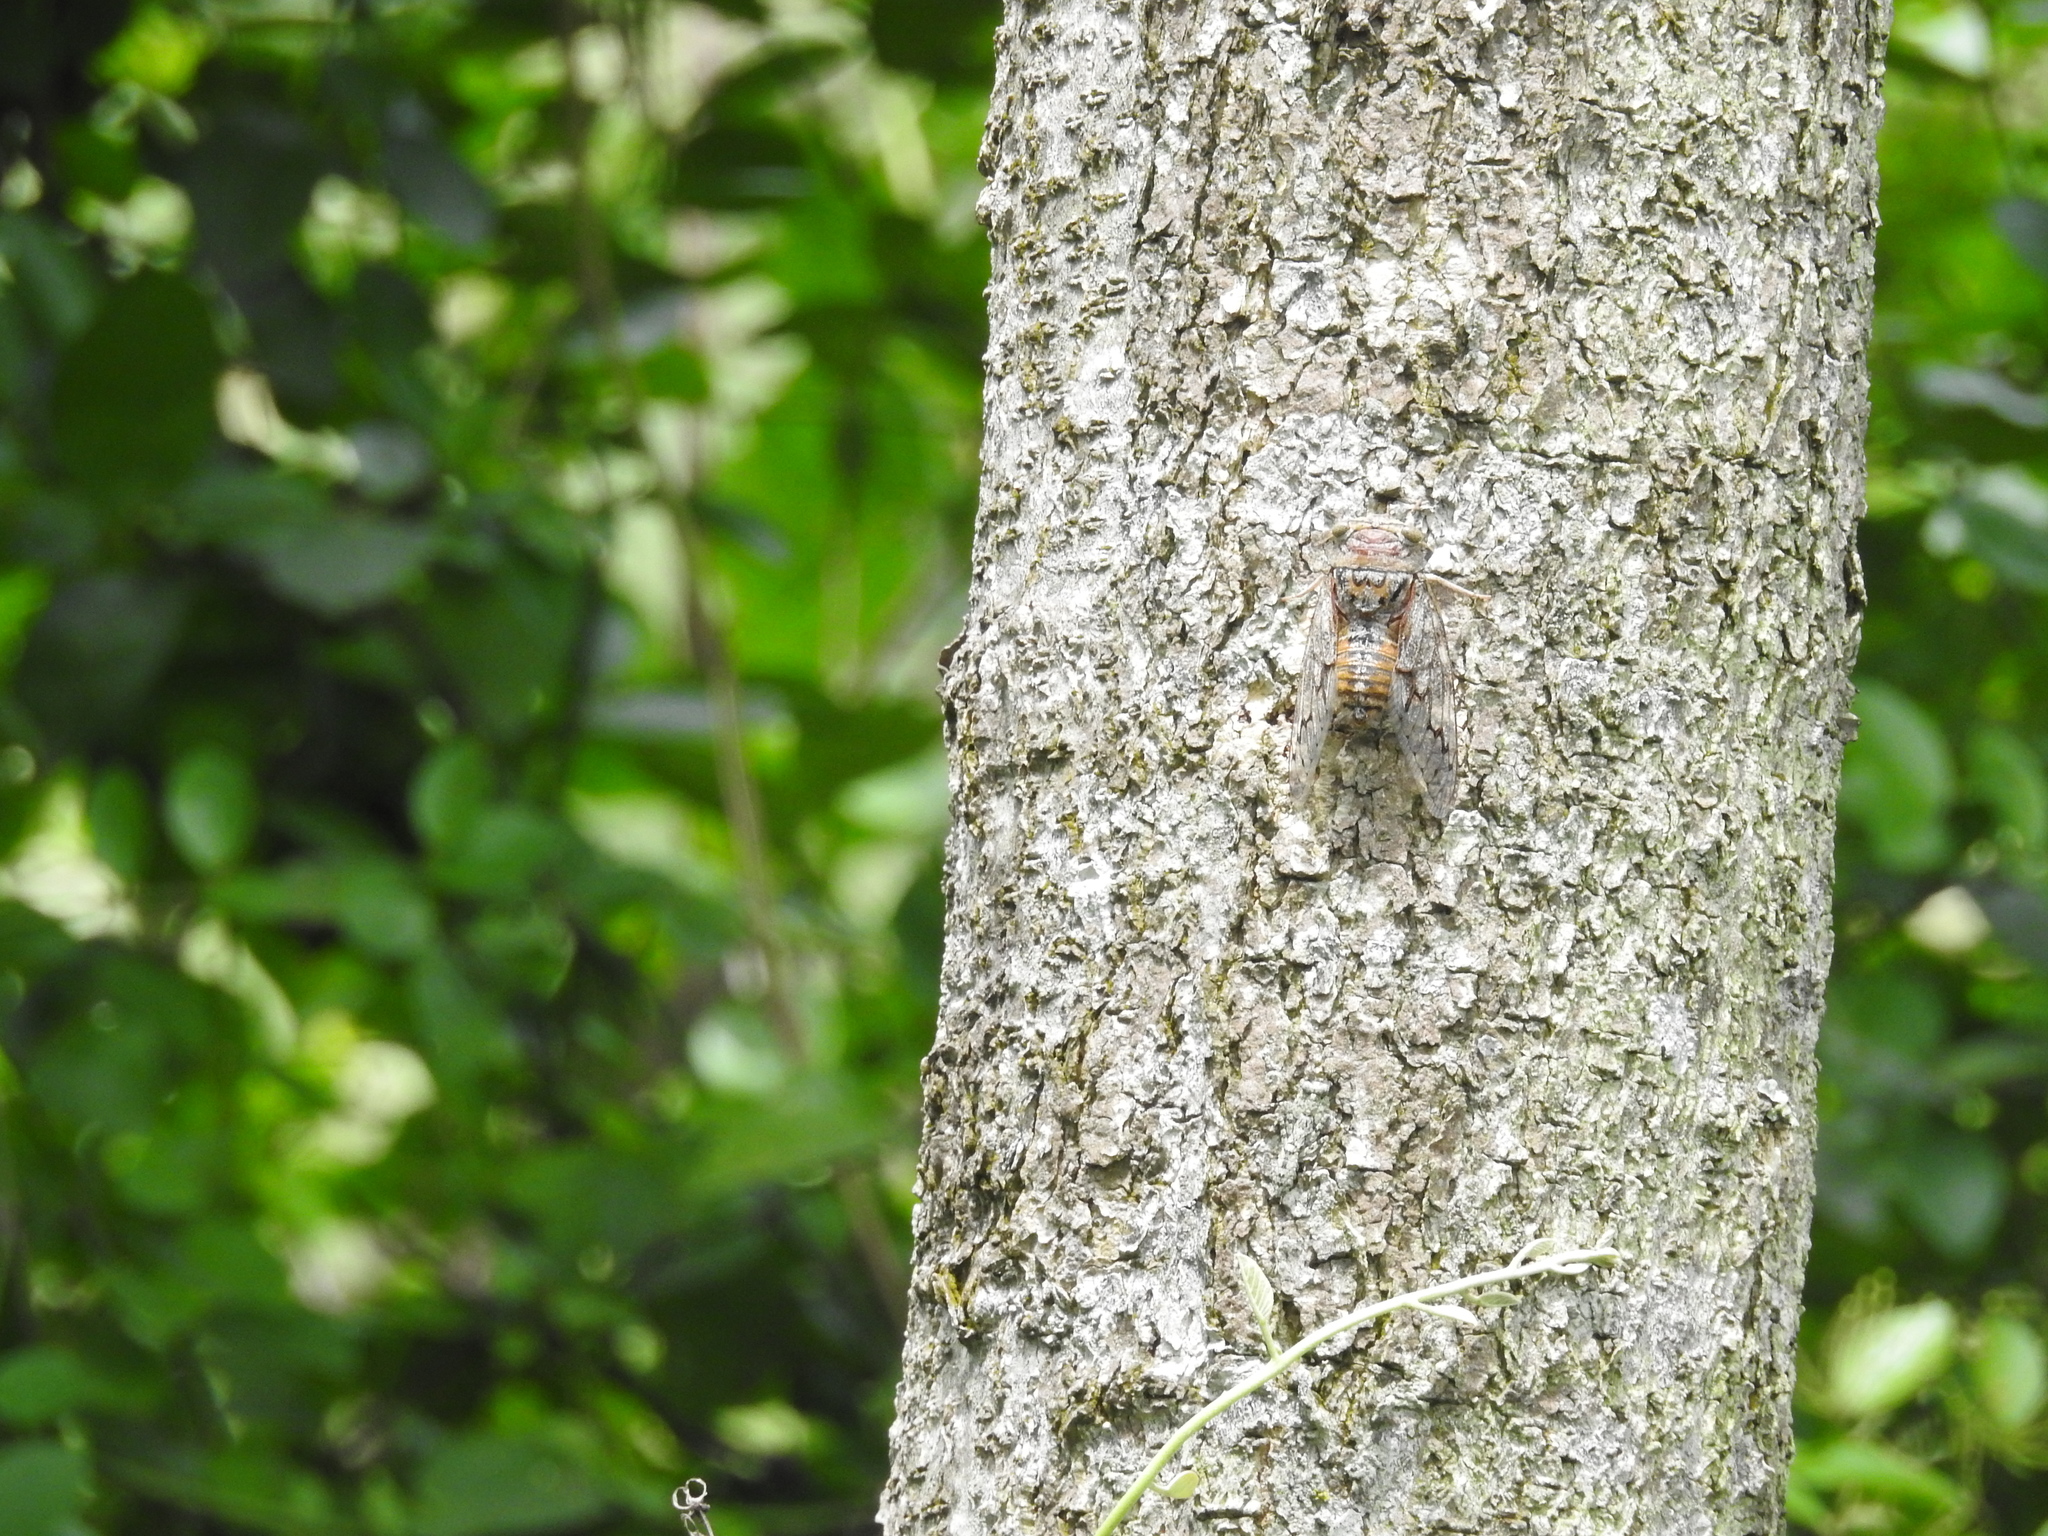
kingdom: Animalia
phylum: Arthropoda
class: Insecta
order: Hemiptera
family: Cicadidae
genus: Platypleura
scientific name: Platypleura octoguttata
